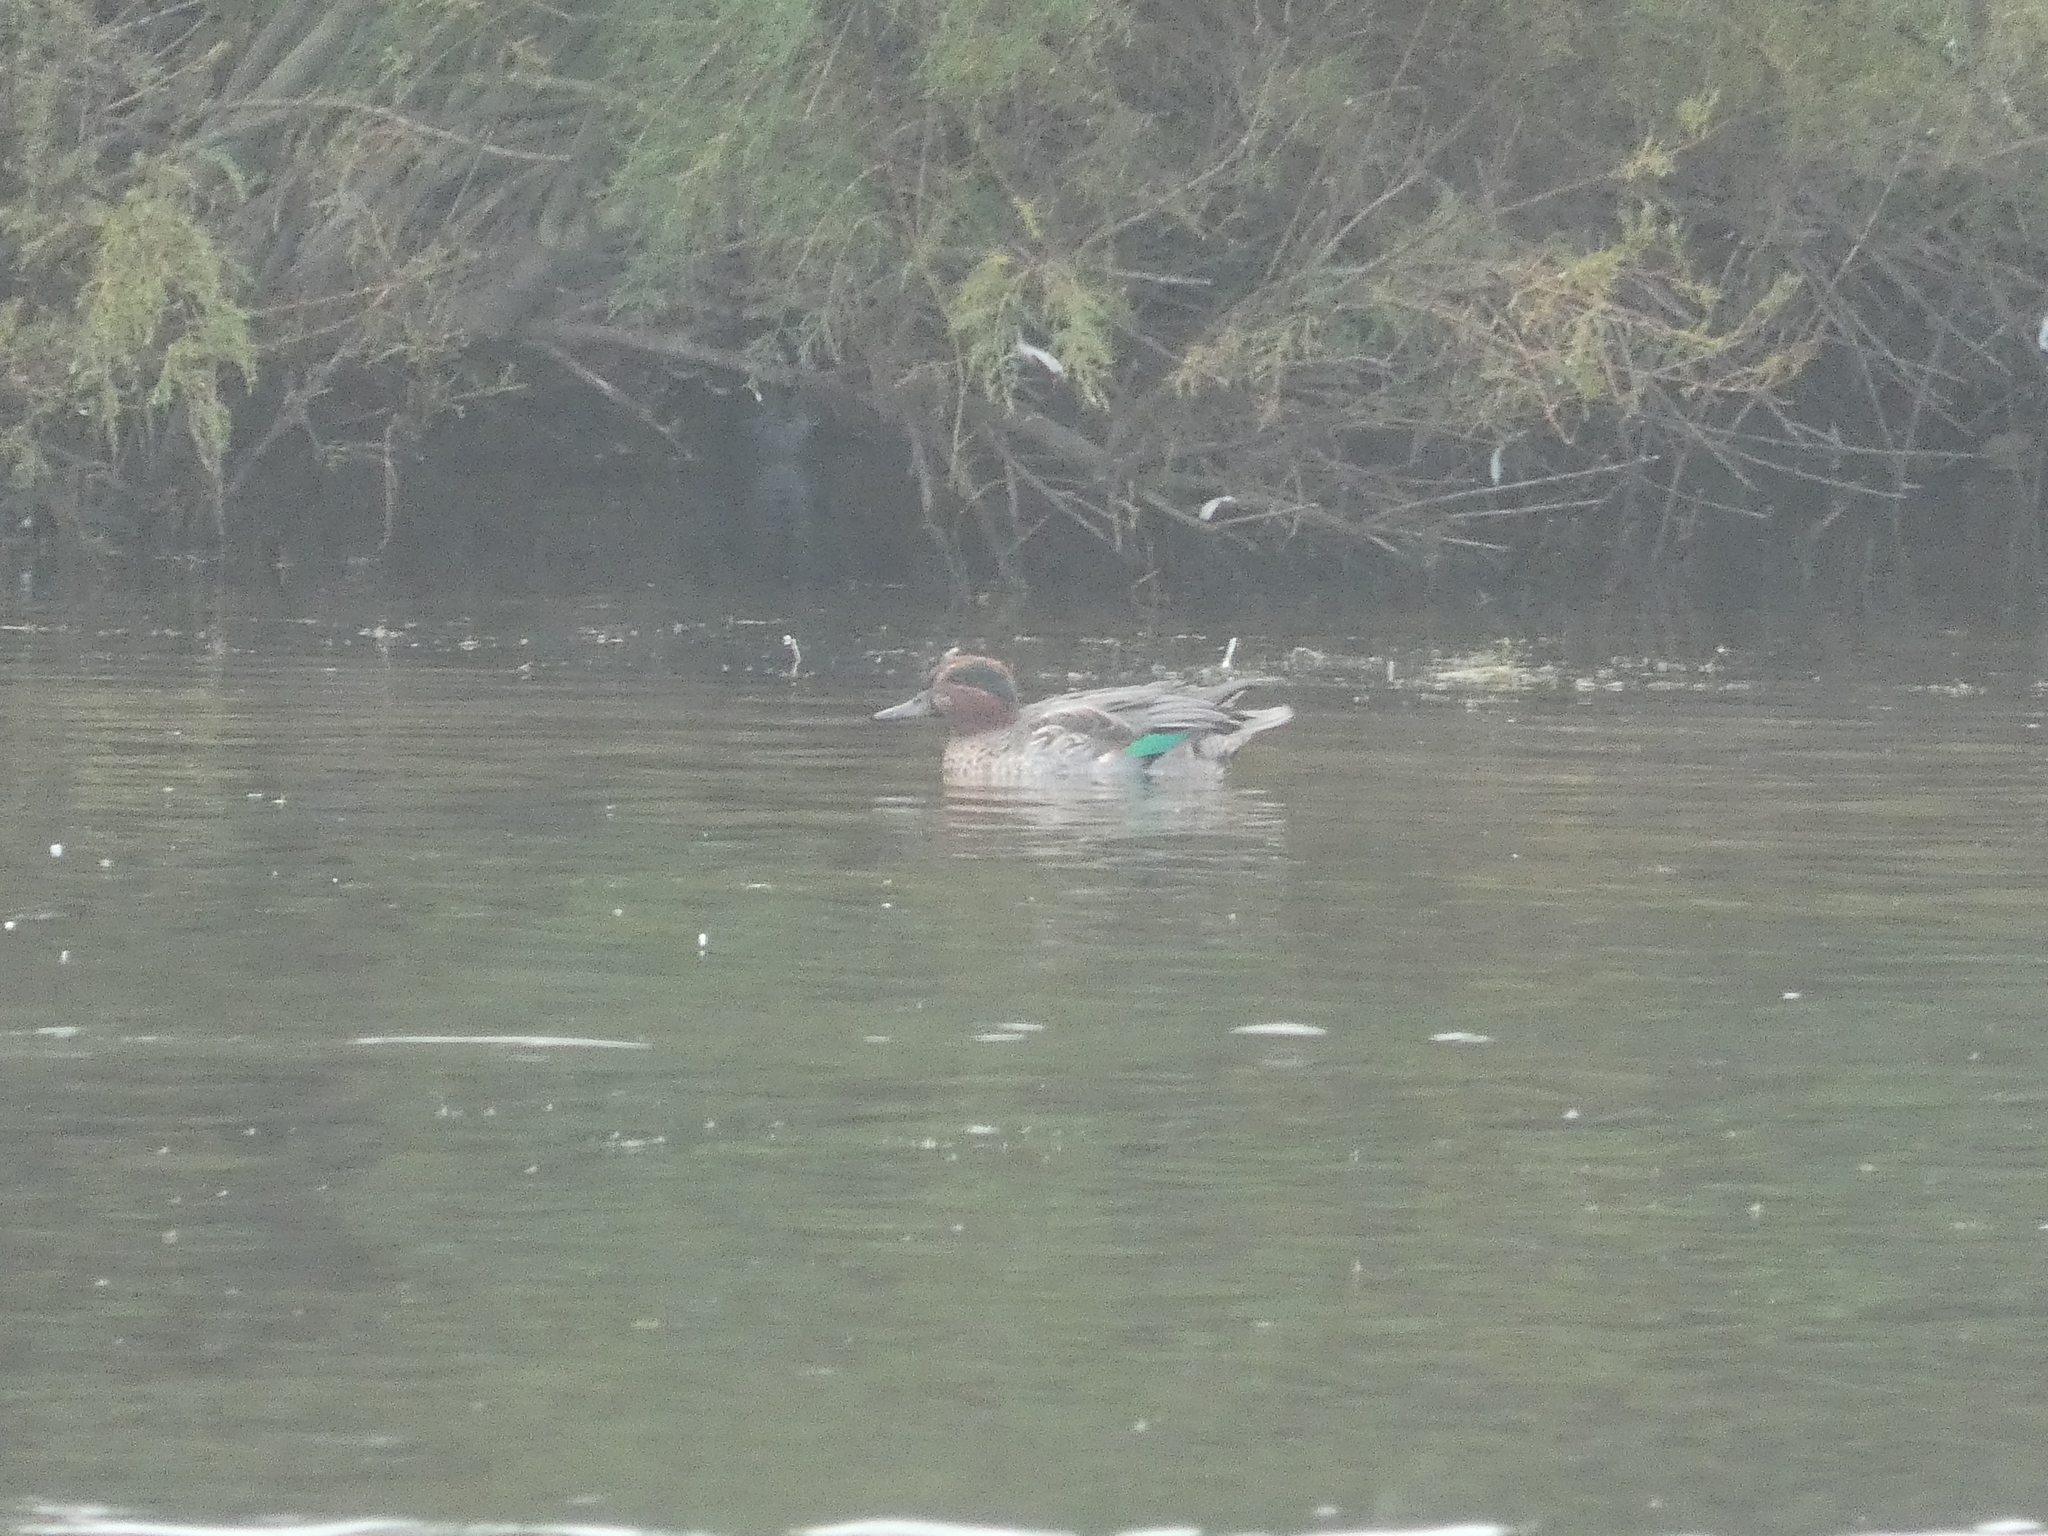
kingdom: Animalia
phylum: Chordata
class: Aves
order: Anseriformes
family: Anatidae
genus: Anas
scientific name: Anas crecca
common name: Eurasian teal
